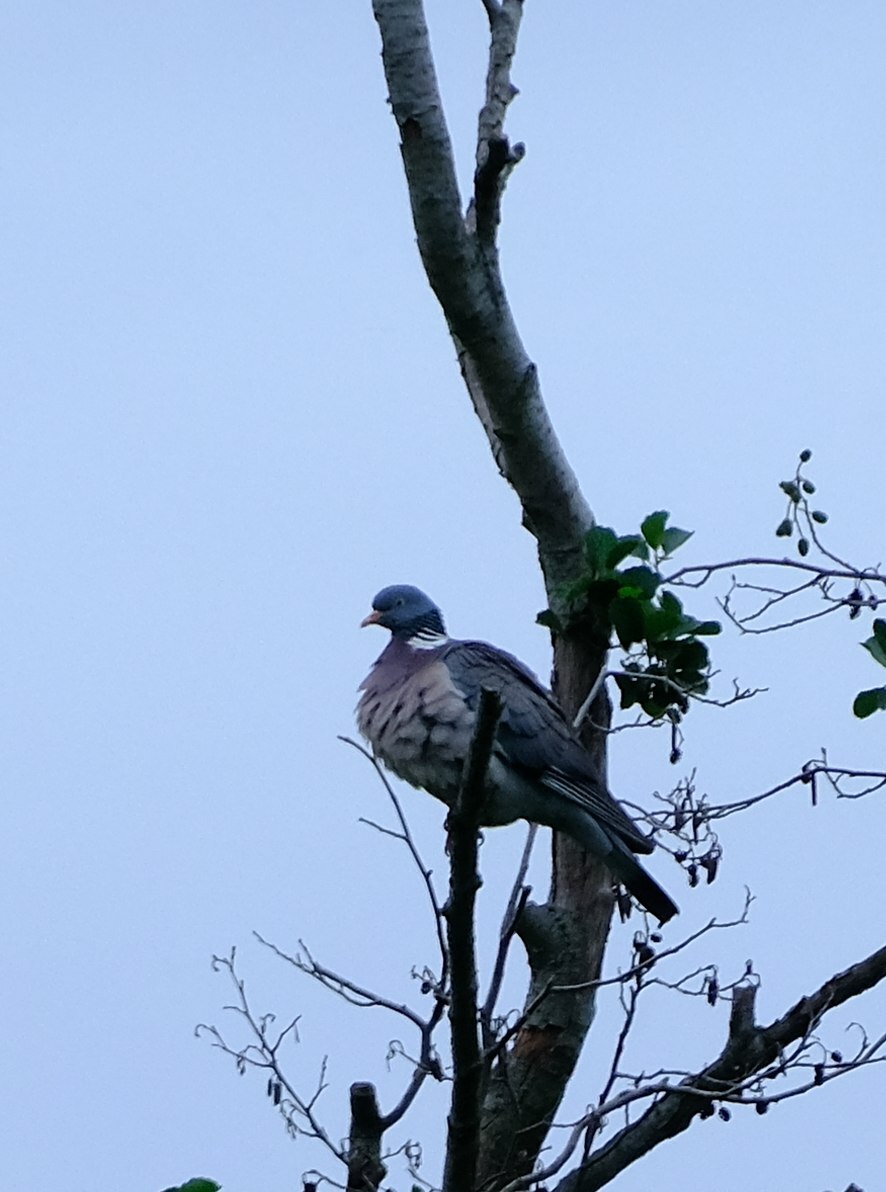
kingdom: Animalia
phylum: Chordata
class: Aves
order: Columbiformes
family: Columbidae
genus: Columba
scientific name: Columba palumbus
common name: Common wood pigeon
